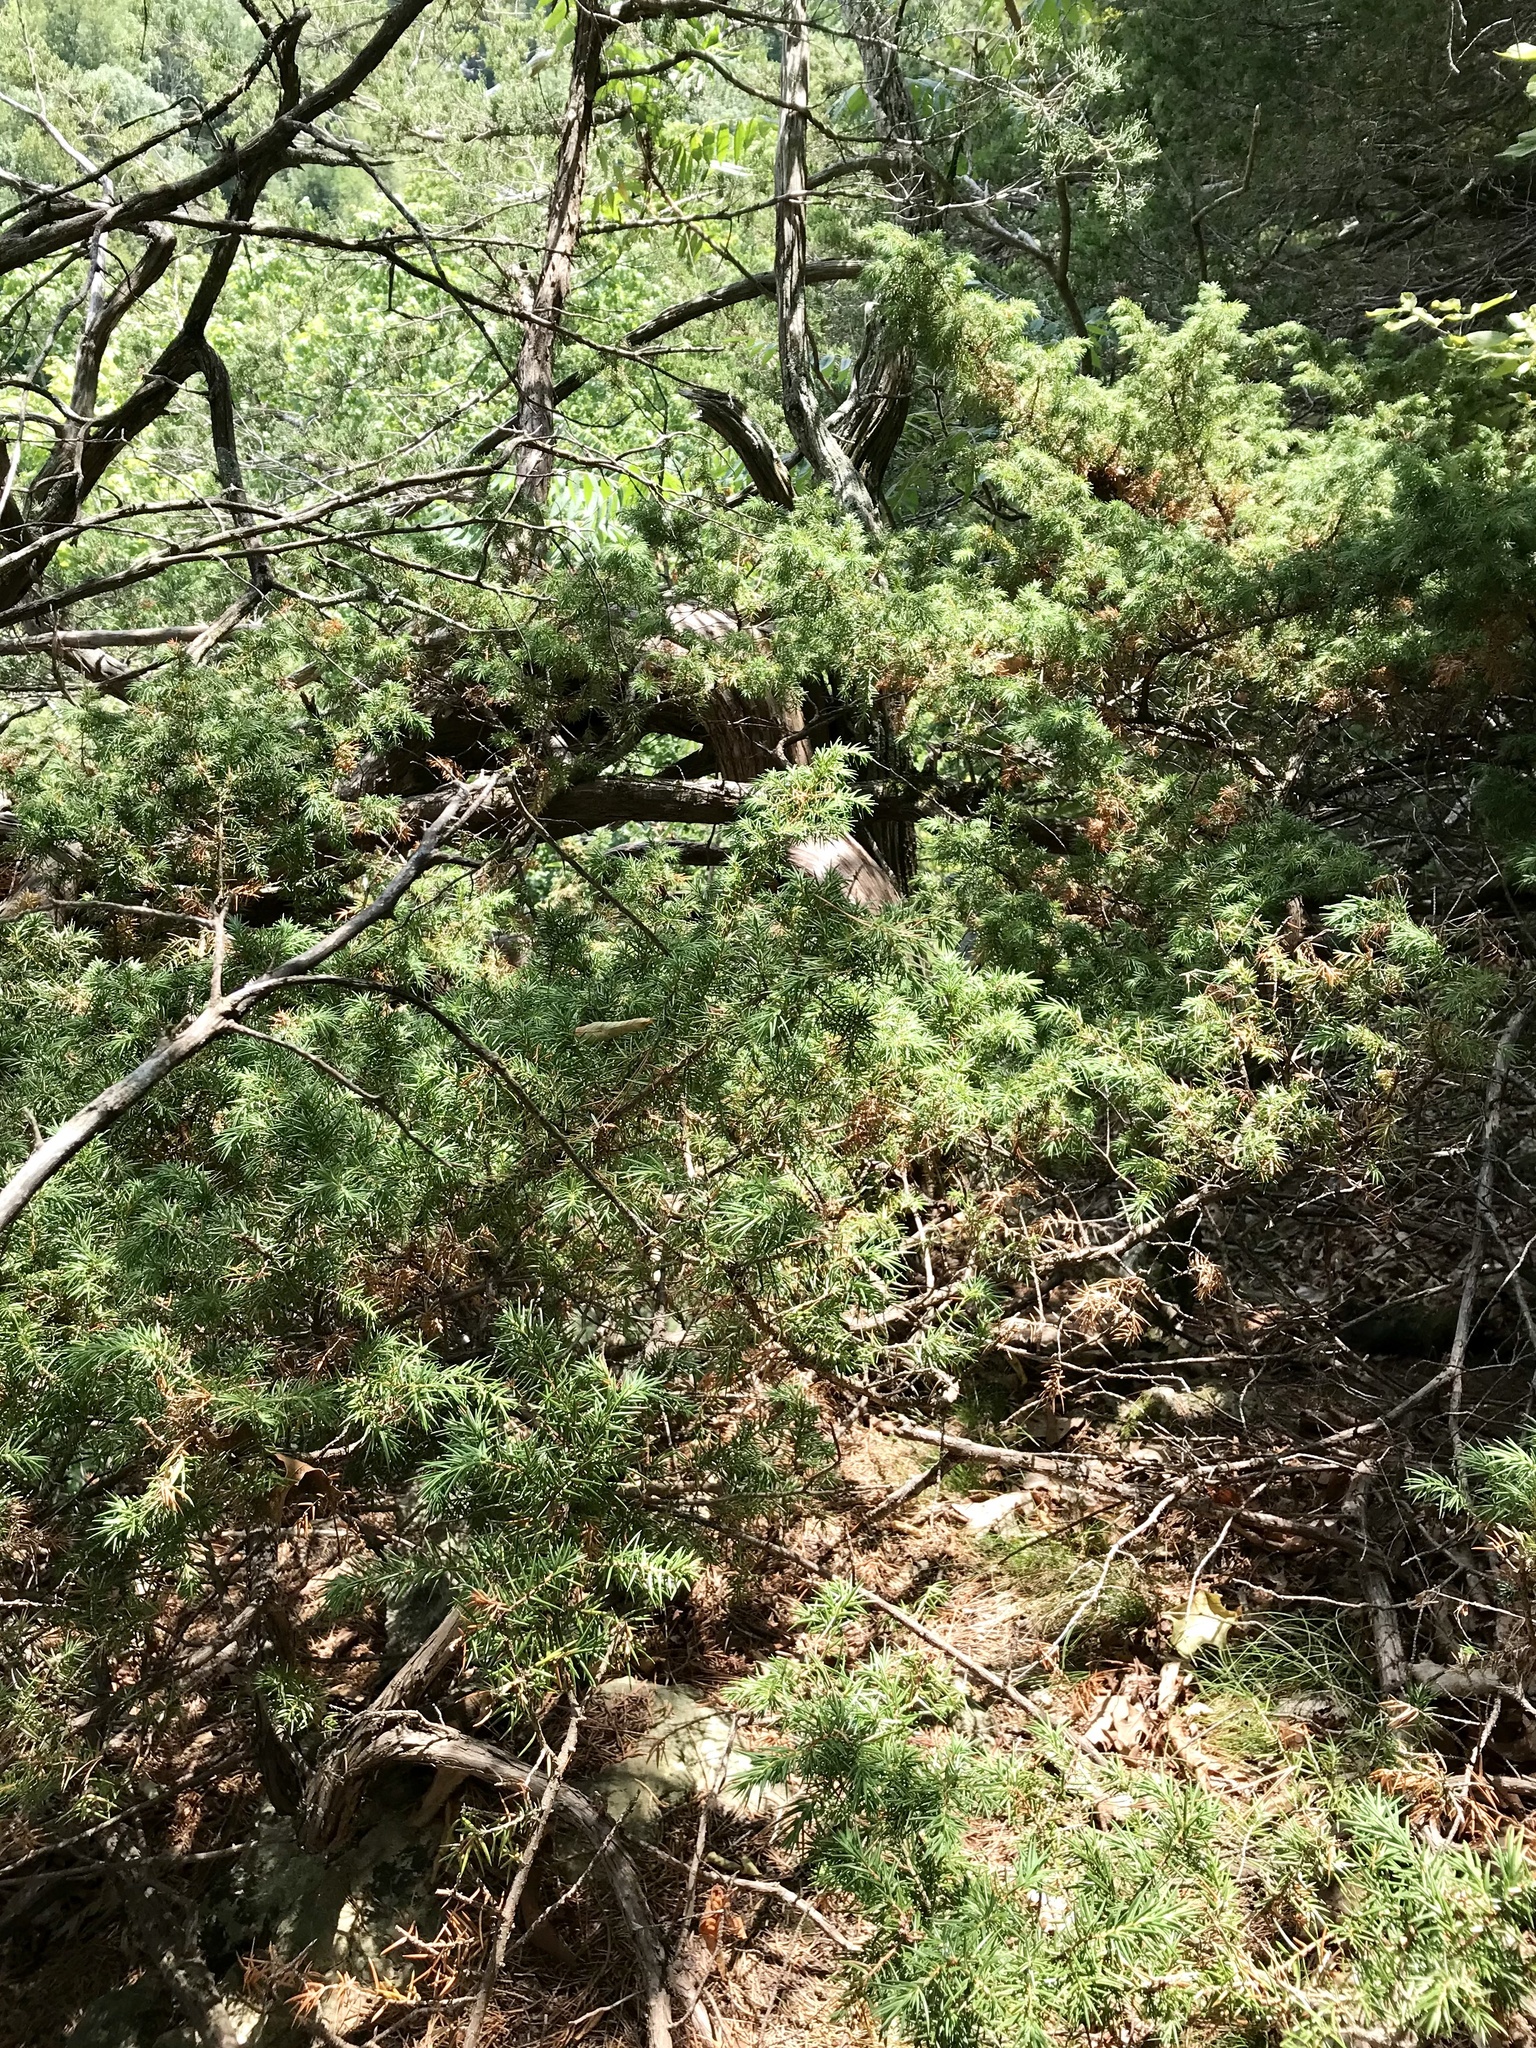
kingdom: Plantae
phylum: Tracheophyta
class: Pinopsida
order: Pinales
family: Cupressaceae
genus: Juniperus
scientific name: Juniperus communis
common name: Common juniper
